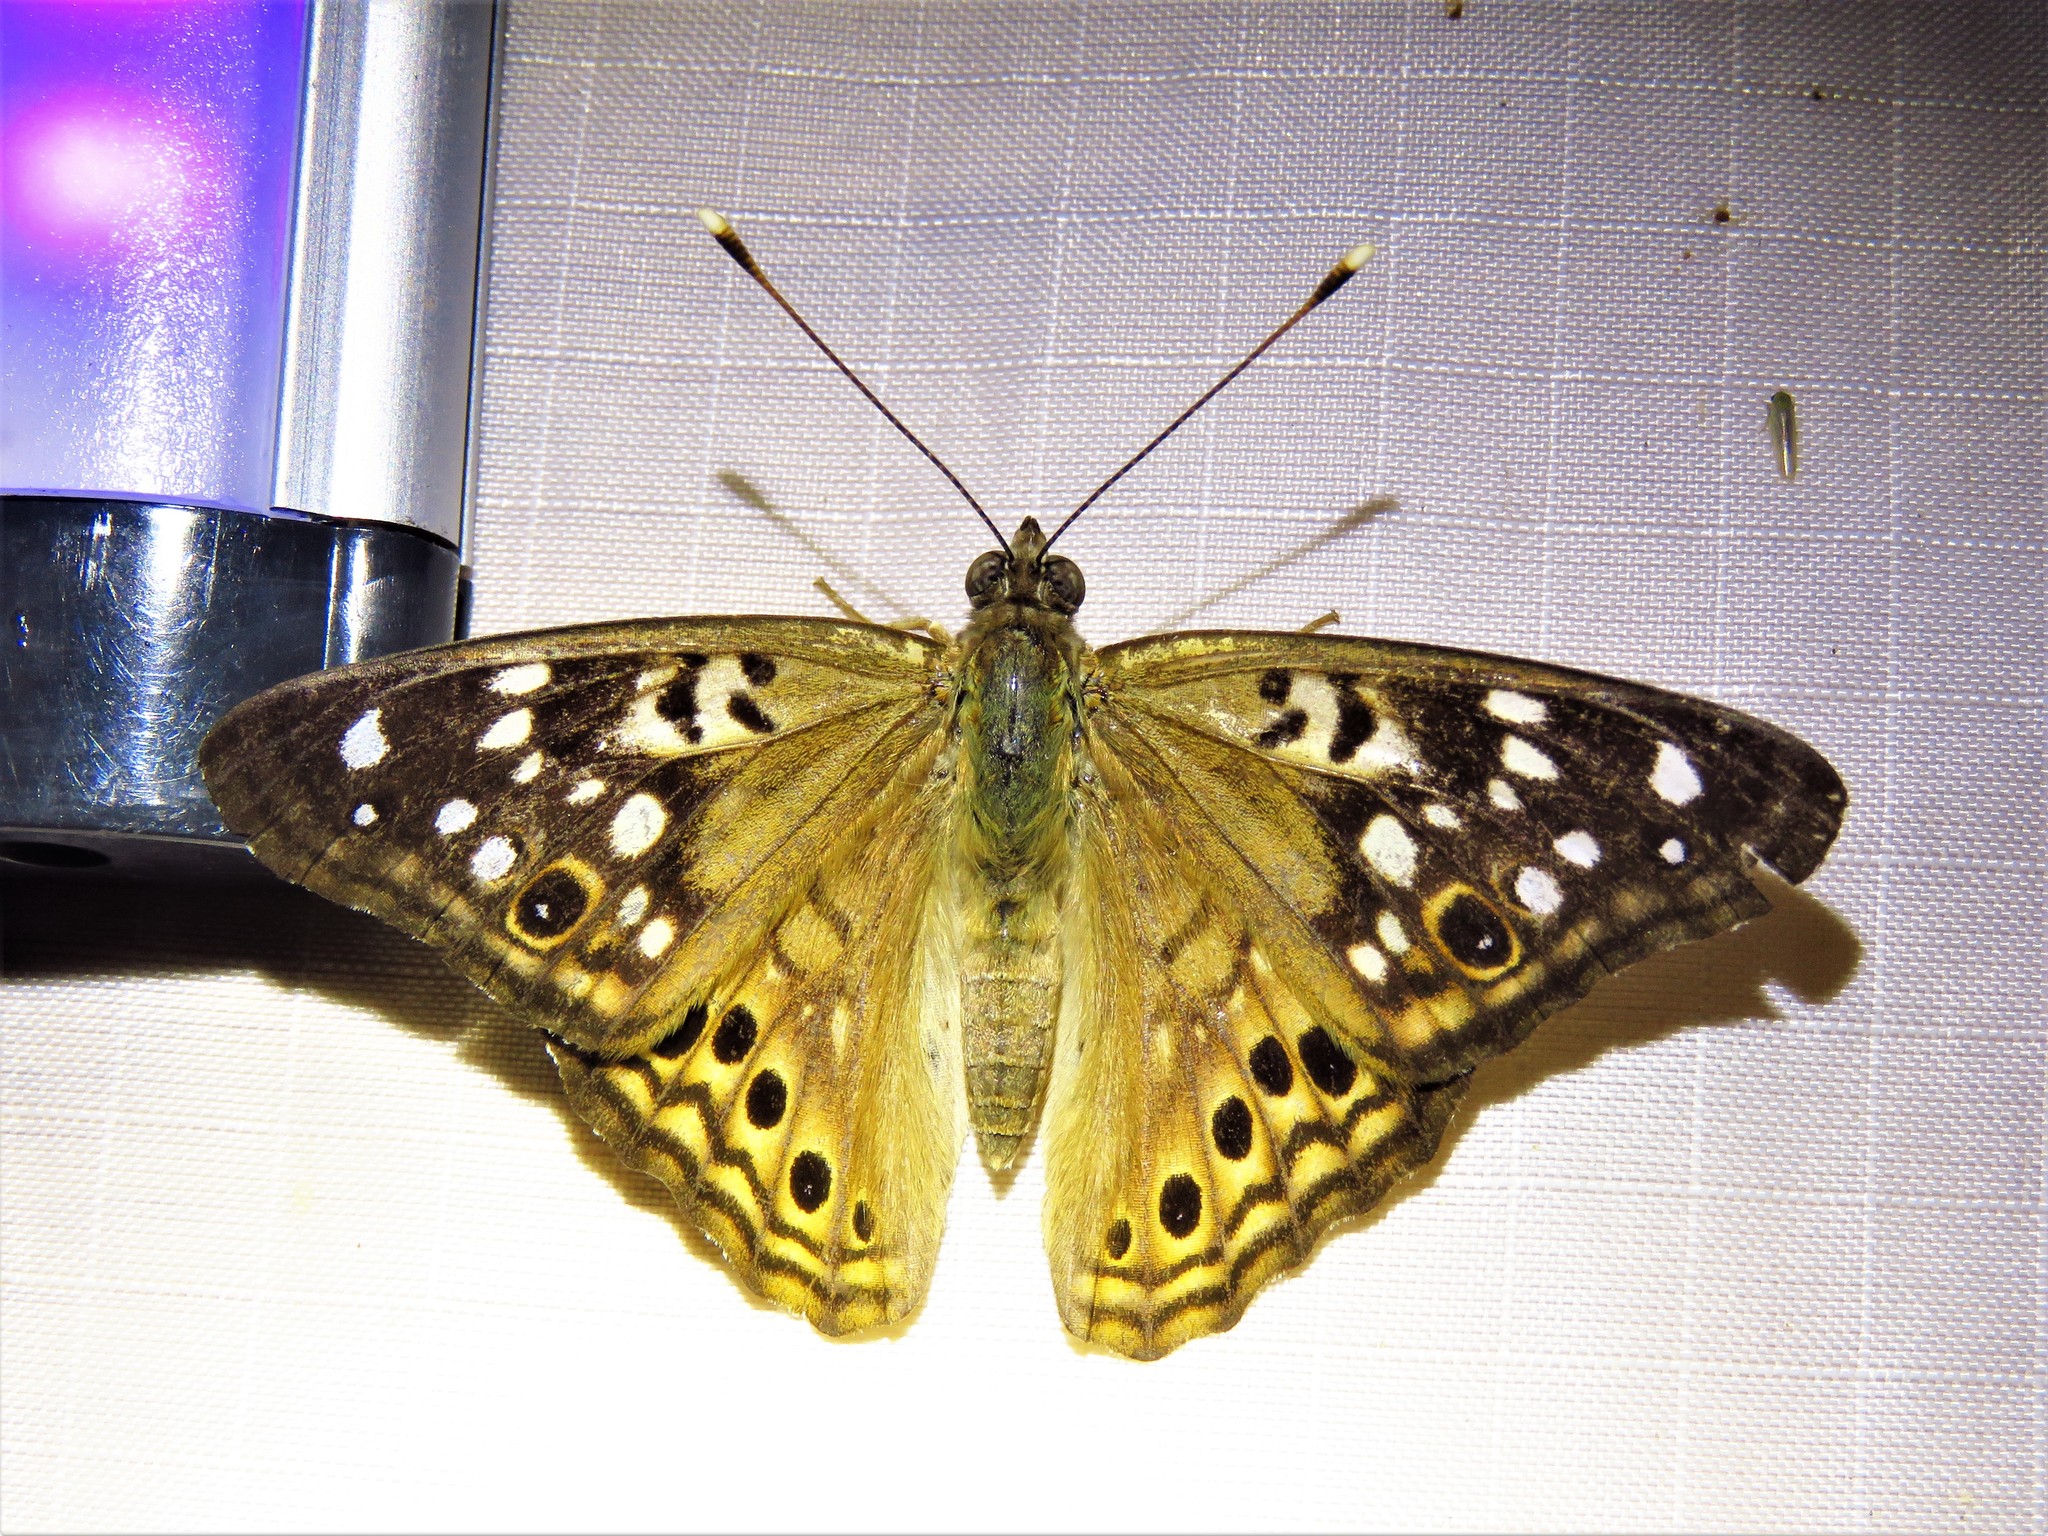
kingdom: Animalia
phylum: Arthropoda
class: Insecta
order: Lepidoptera
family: Nymphalidae
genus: Asterocampa
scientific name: Asterocampa celtis
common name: Hackberry emperor
